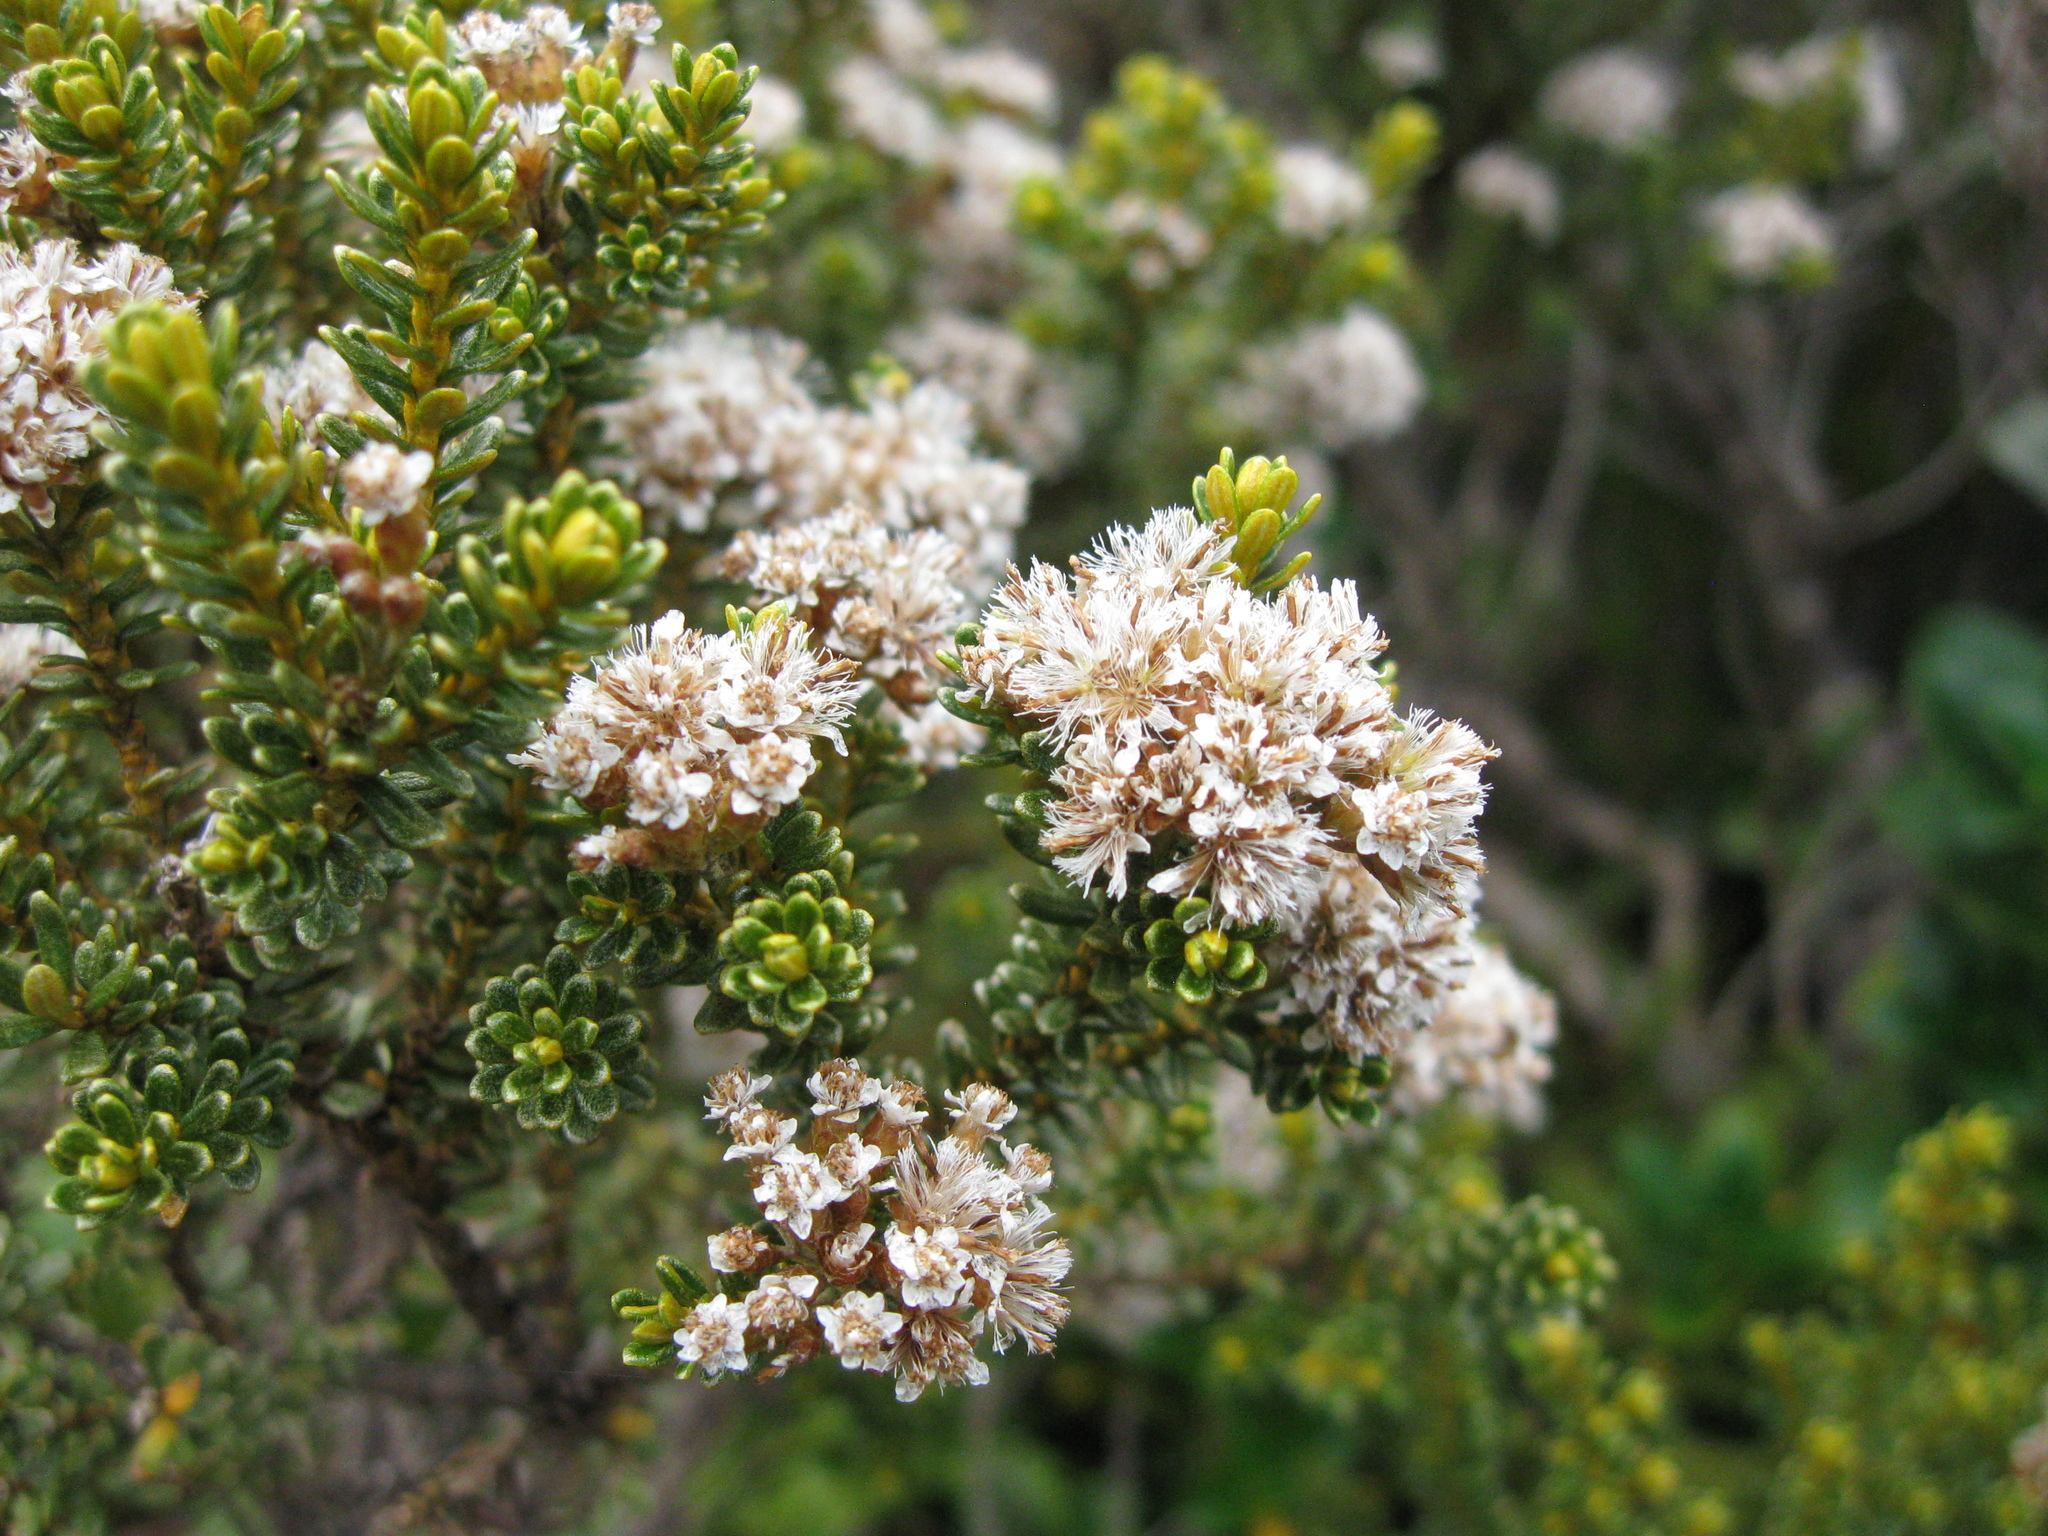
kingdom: Plantae
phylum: Tracheophyta
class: Magnoliopsida
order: Asterales
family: Asteraceae
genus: Ozothamnus
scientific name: Ozothamnus
